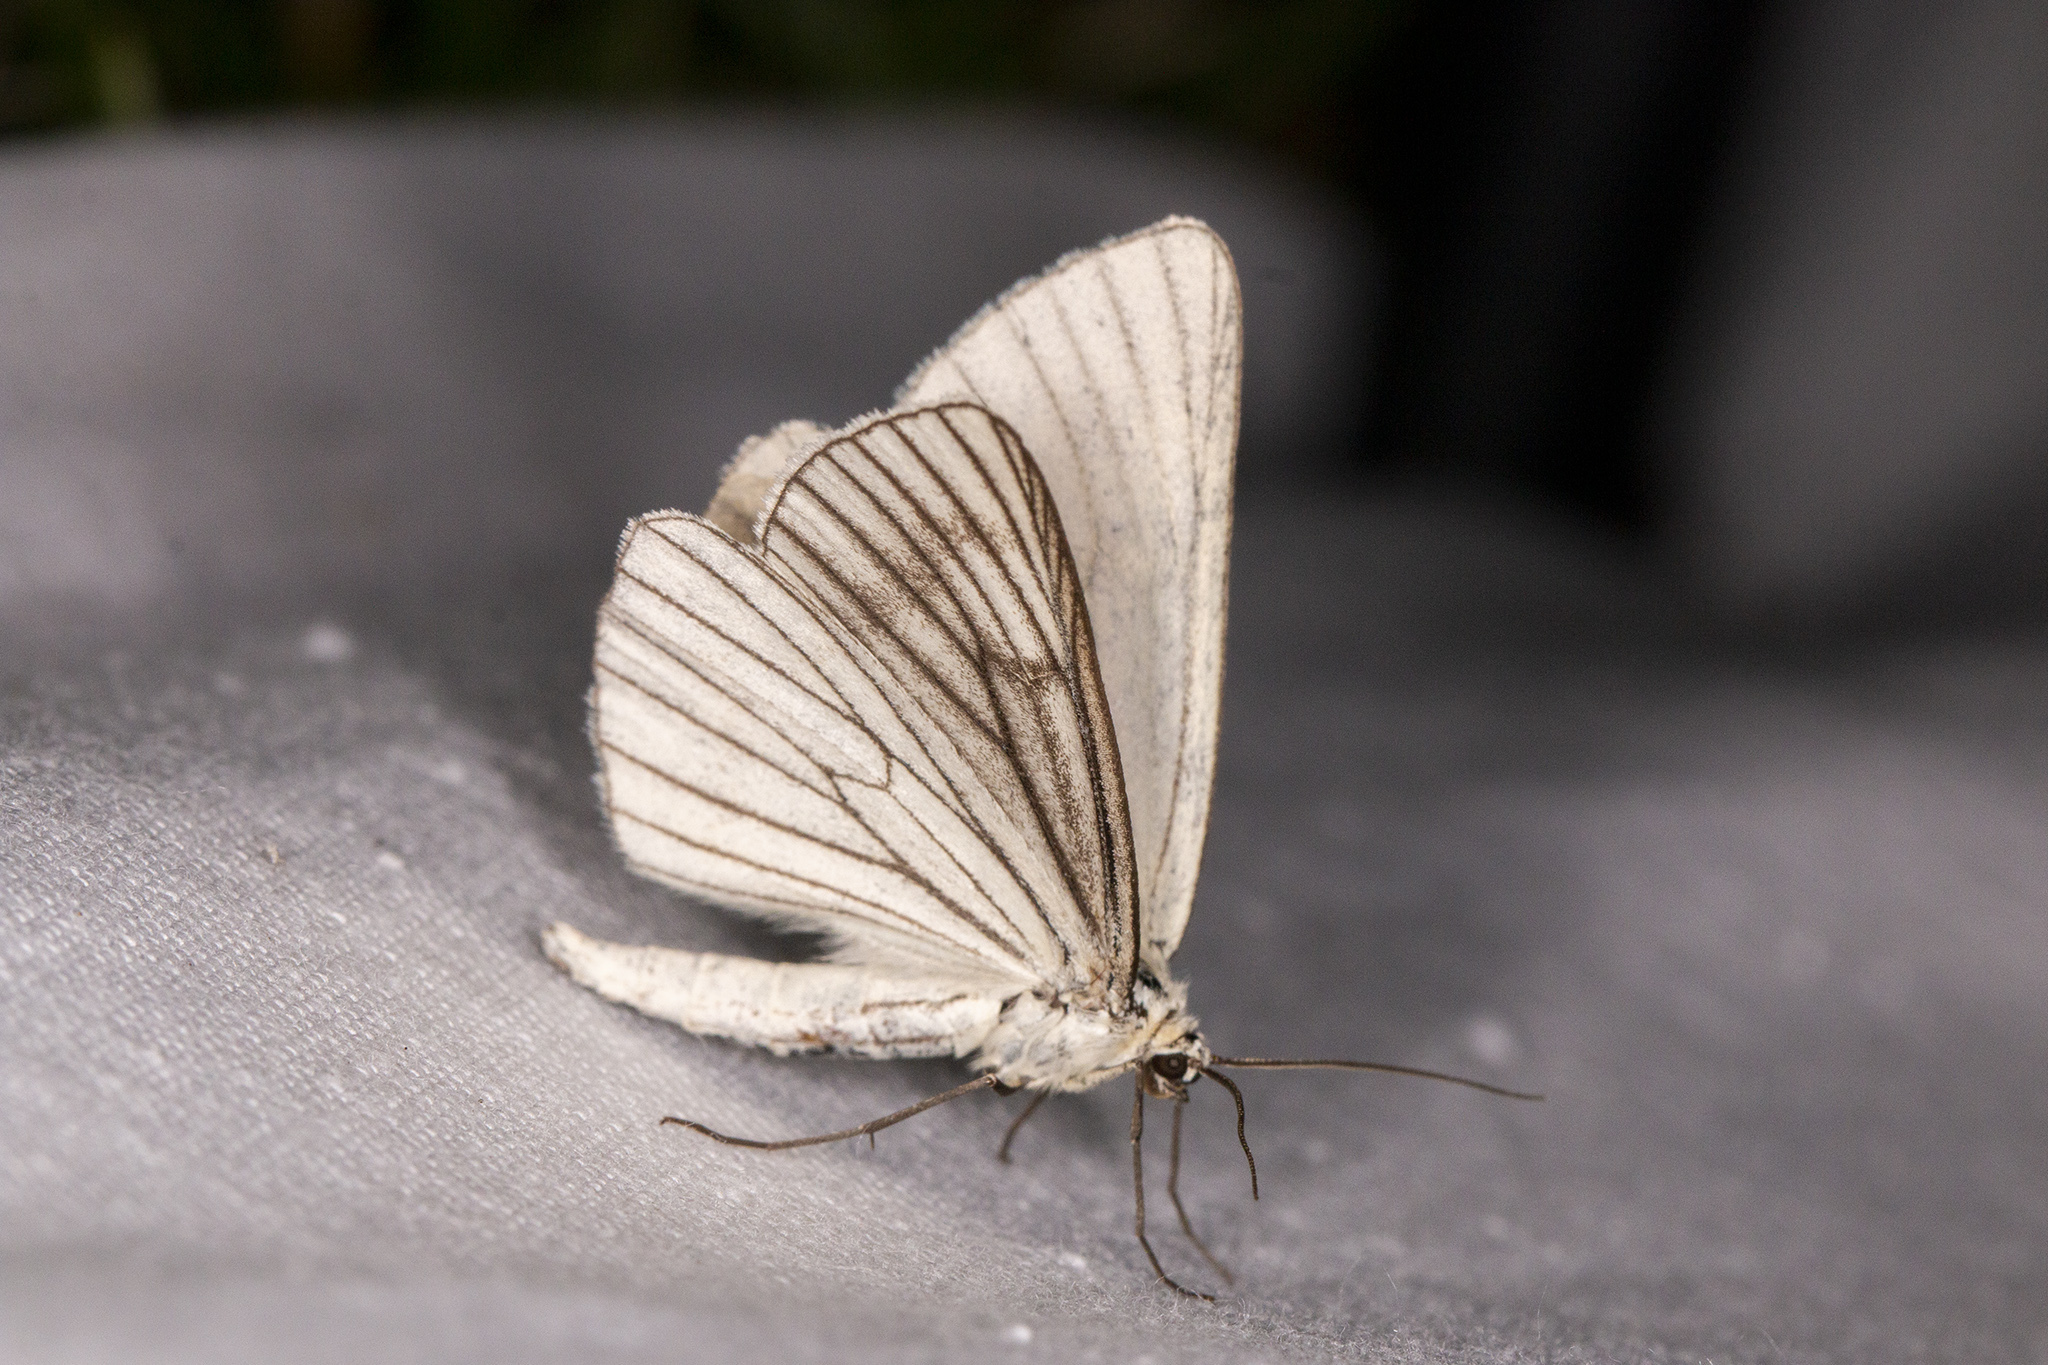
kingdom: Animalia
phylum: Arthropoda
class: Insecta
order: Lepidoptera
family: Geometridae
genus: Siona
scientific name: Siona lineata
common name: Black-veined moth
